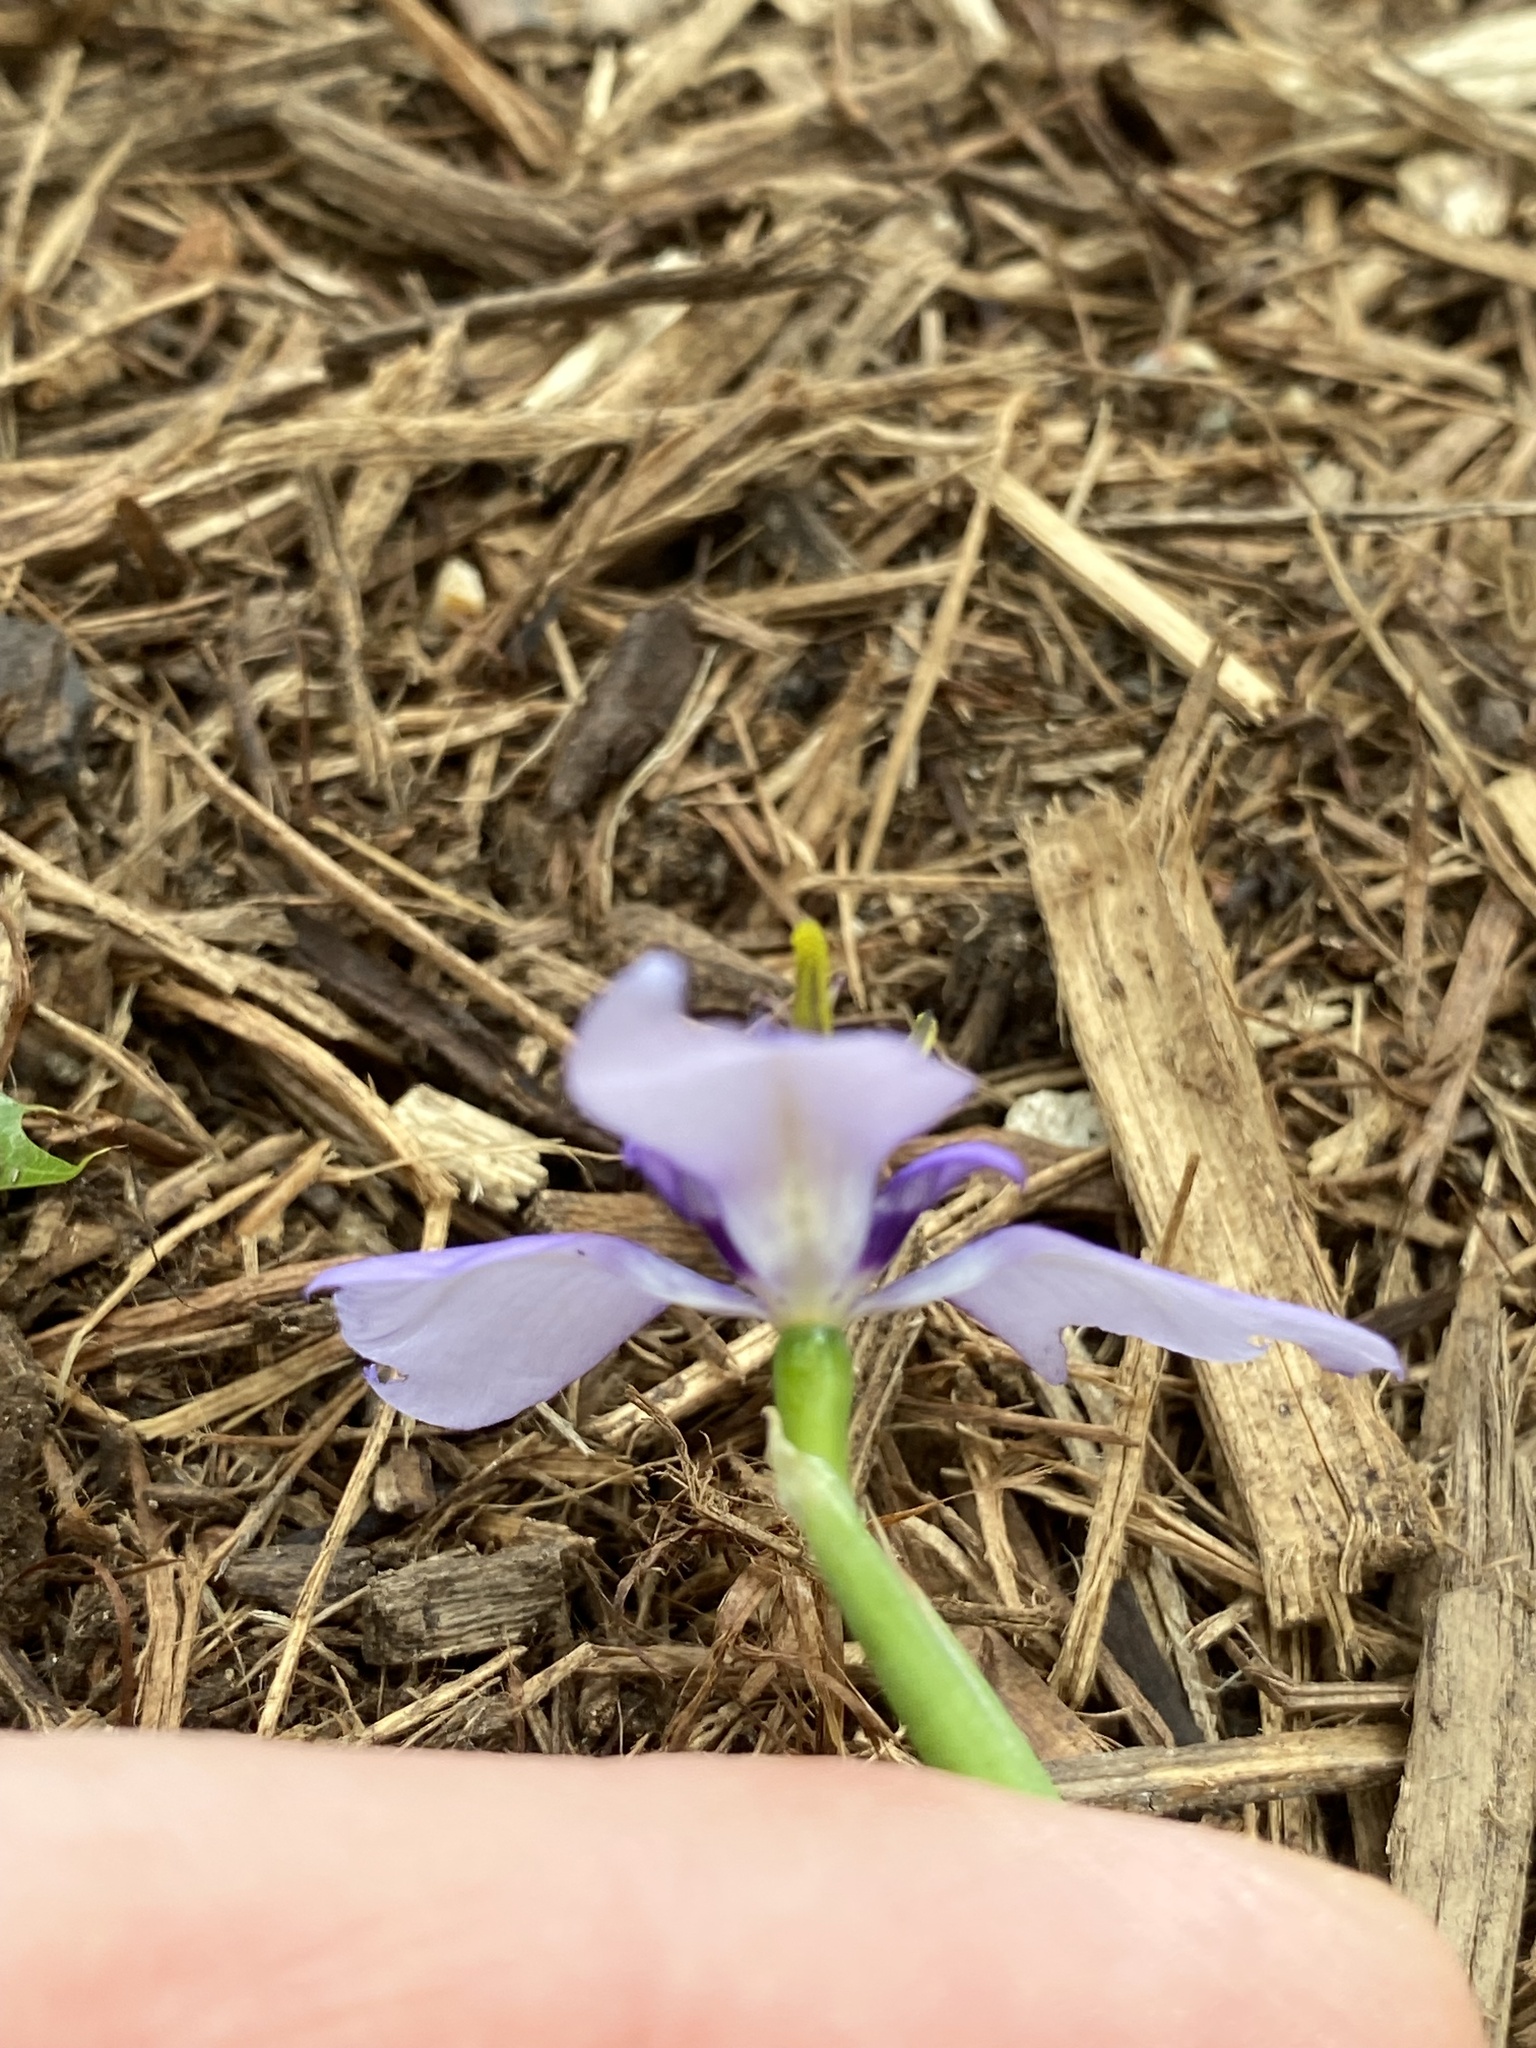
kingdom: Plantae
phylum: Tracheophyta
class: Liliopsida
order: Asparagales
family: Iridaceae
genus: Herbertia
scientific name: Herbertia lahue
